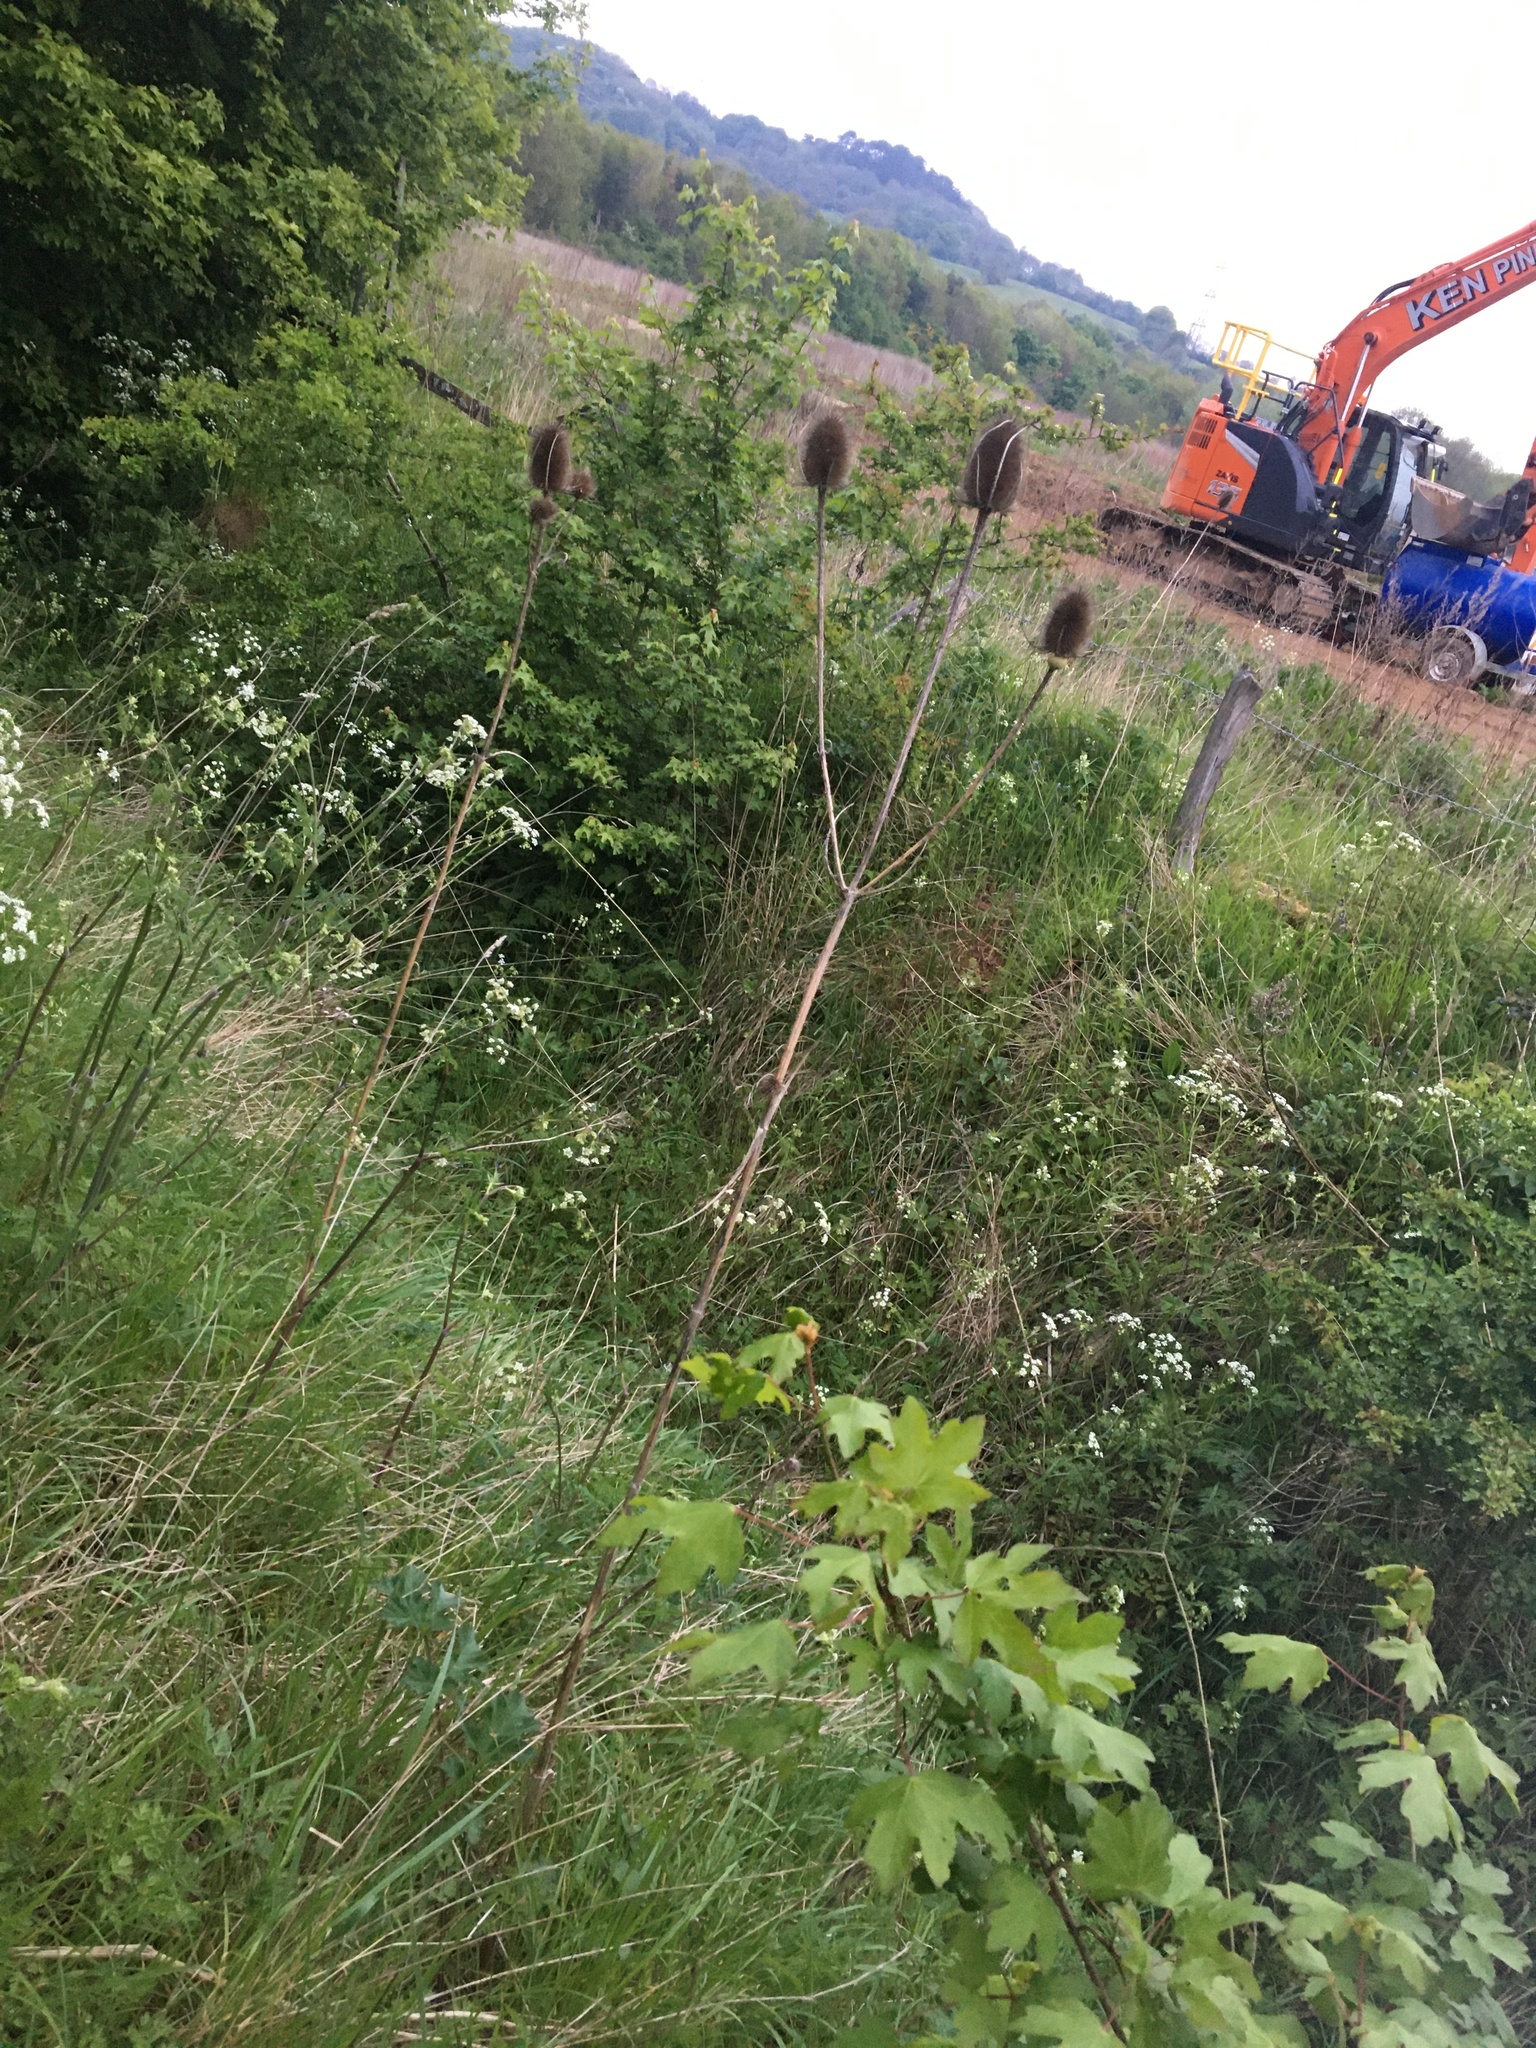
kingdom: Plantae
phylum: Tracheophyta
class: Magnoliopsida
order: Dipsacales
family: Caprifoliaceae
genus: Dipsacus
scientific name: Dipsacus fullonum
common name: Teasel
